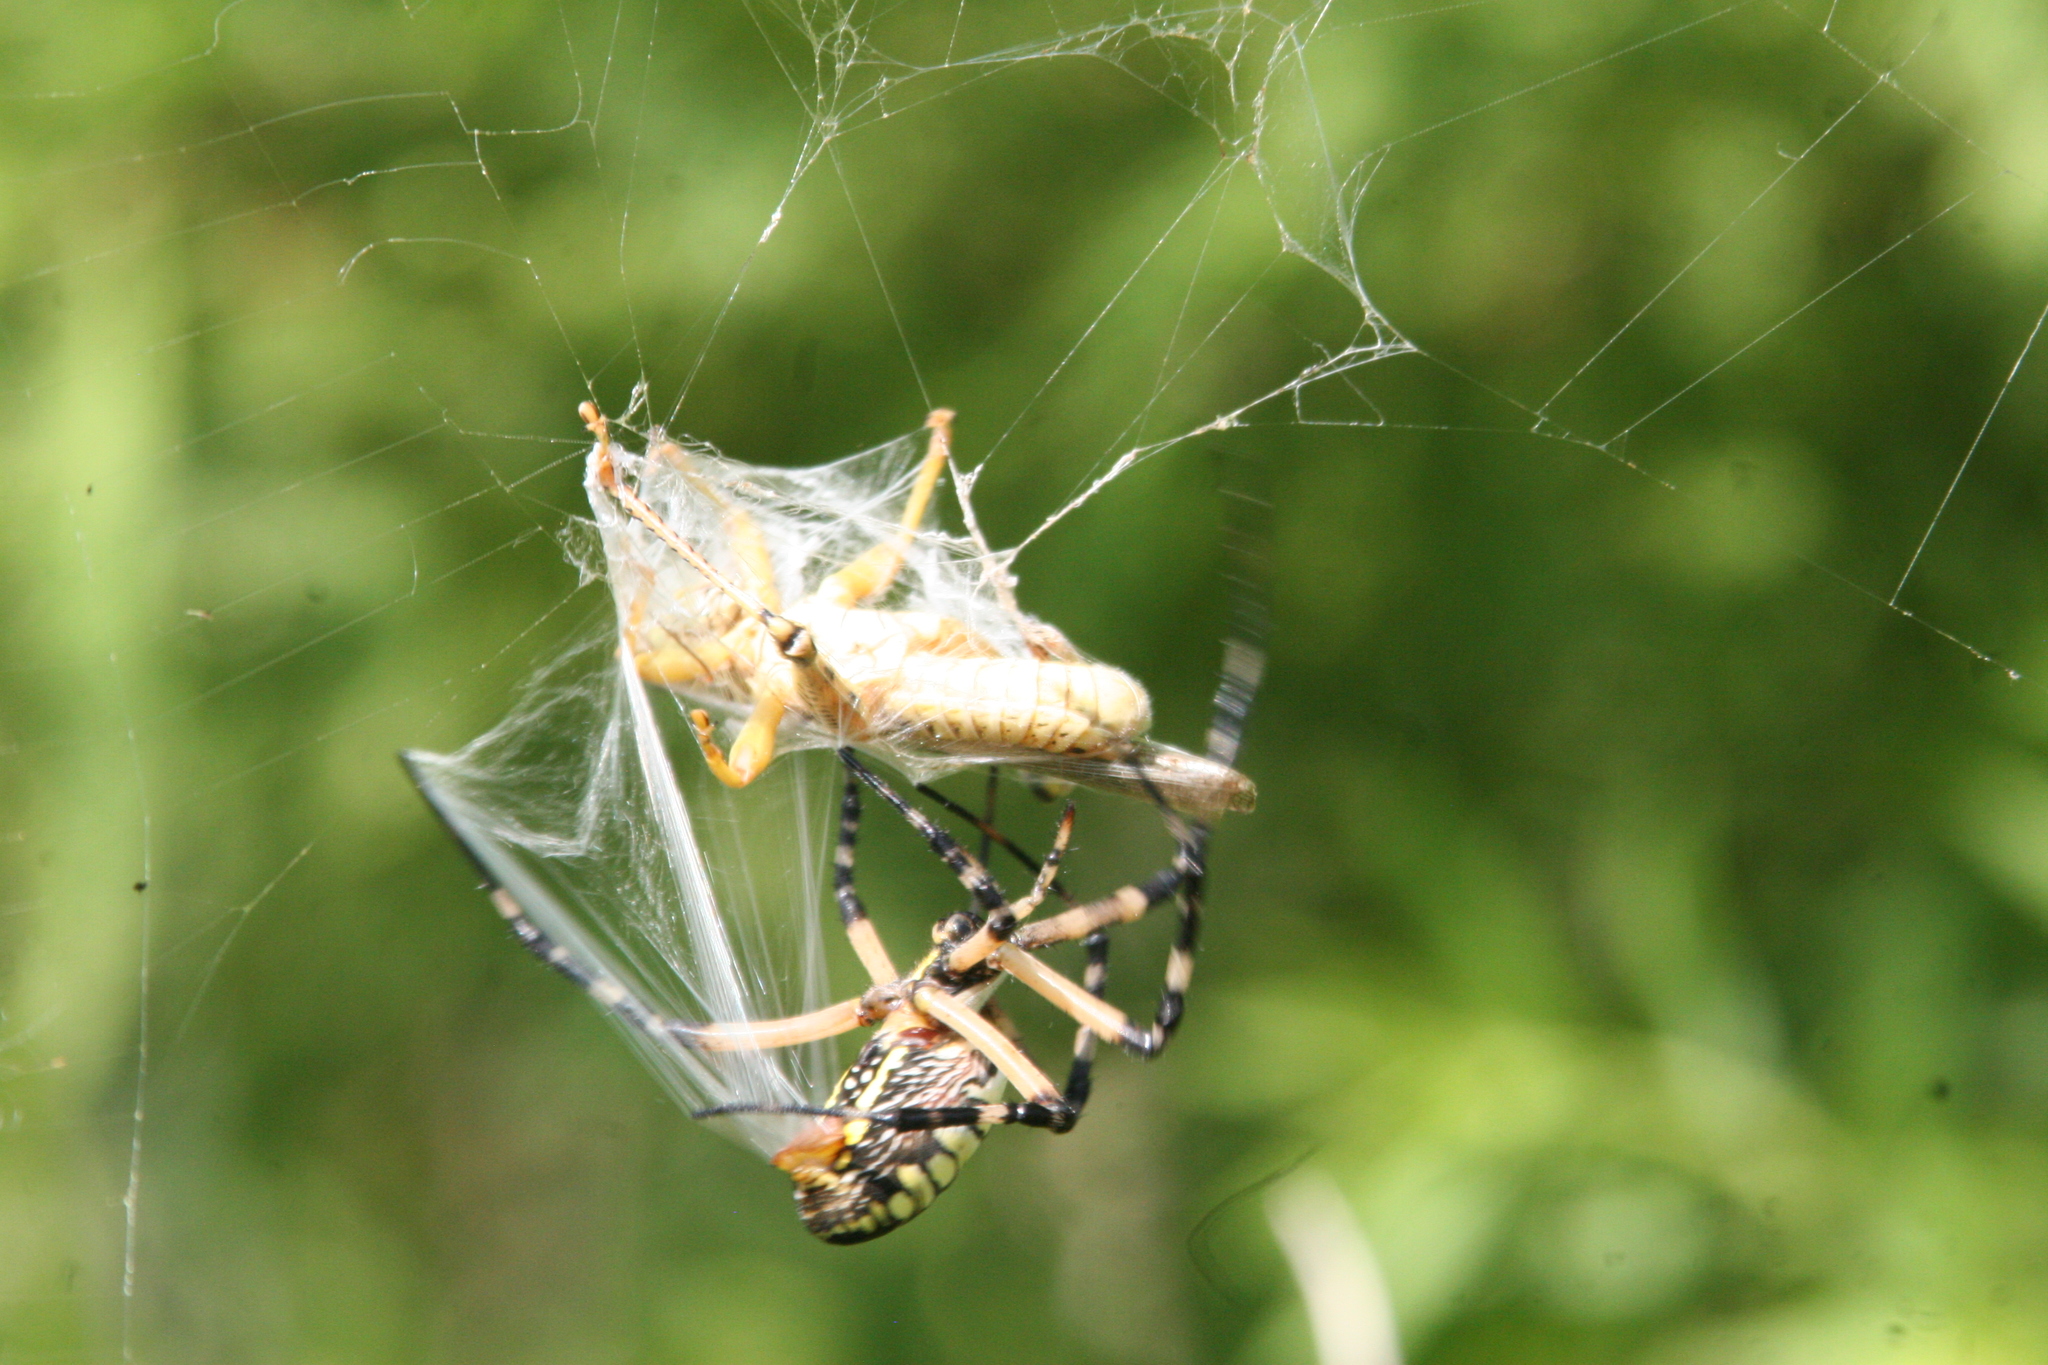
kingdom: Animalia
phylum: Arthropoda
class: Arachnida
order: Araneae
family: Araneidae
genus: Argiope
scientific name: Argiope aurantia
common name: Orb weavers
